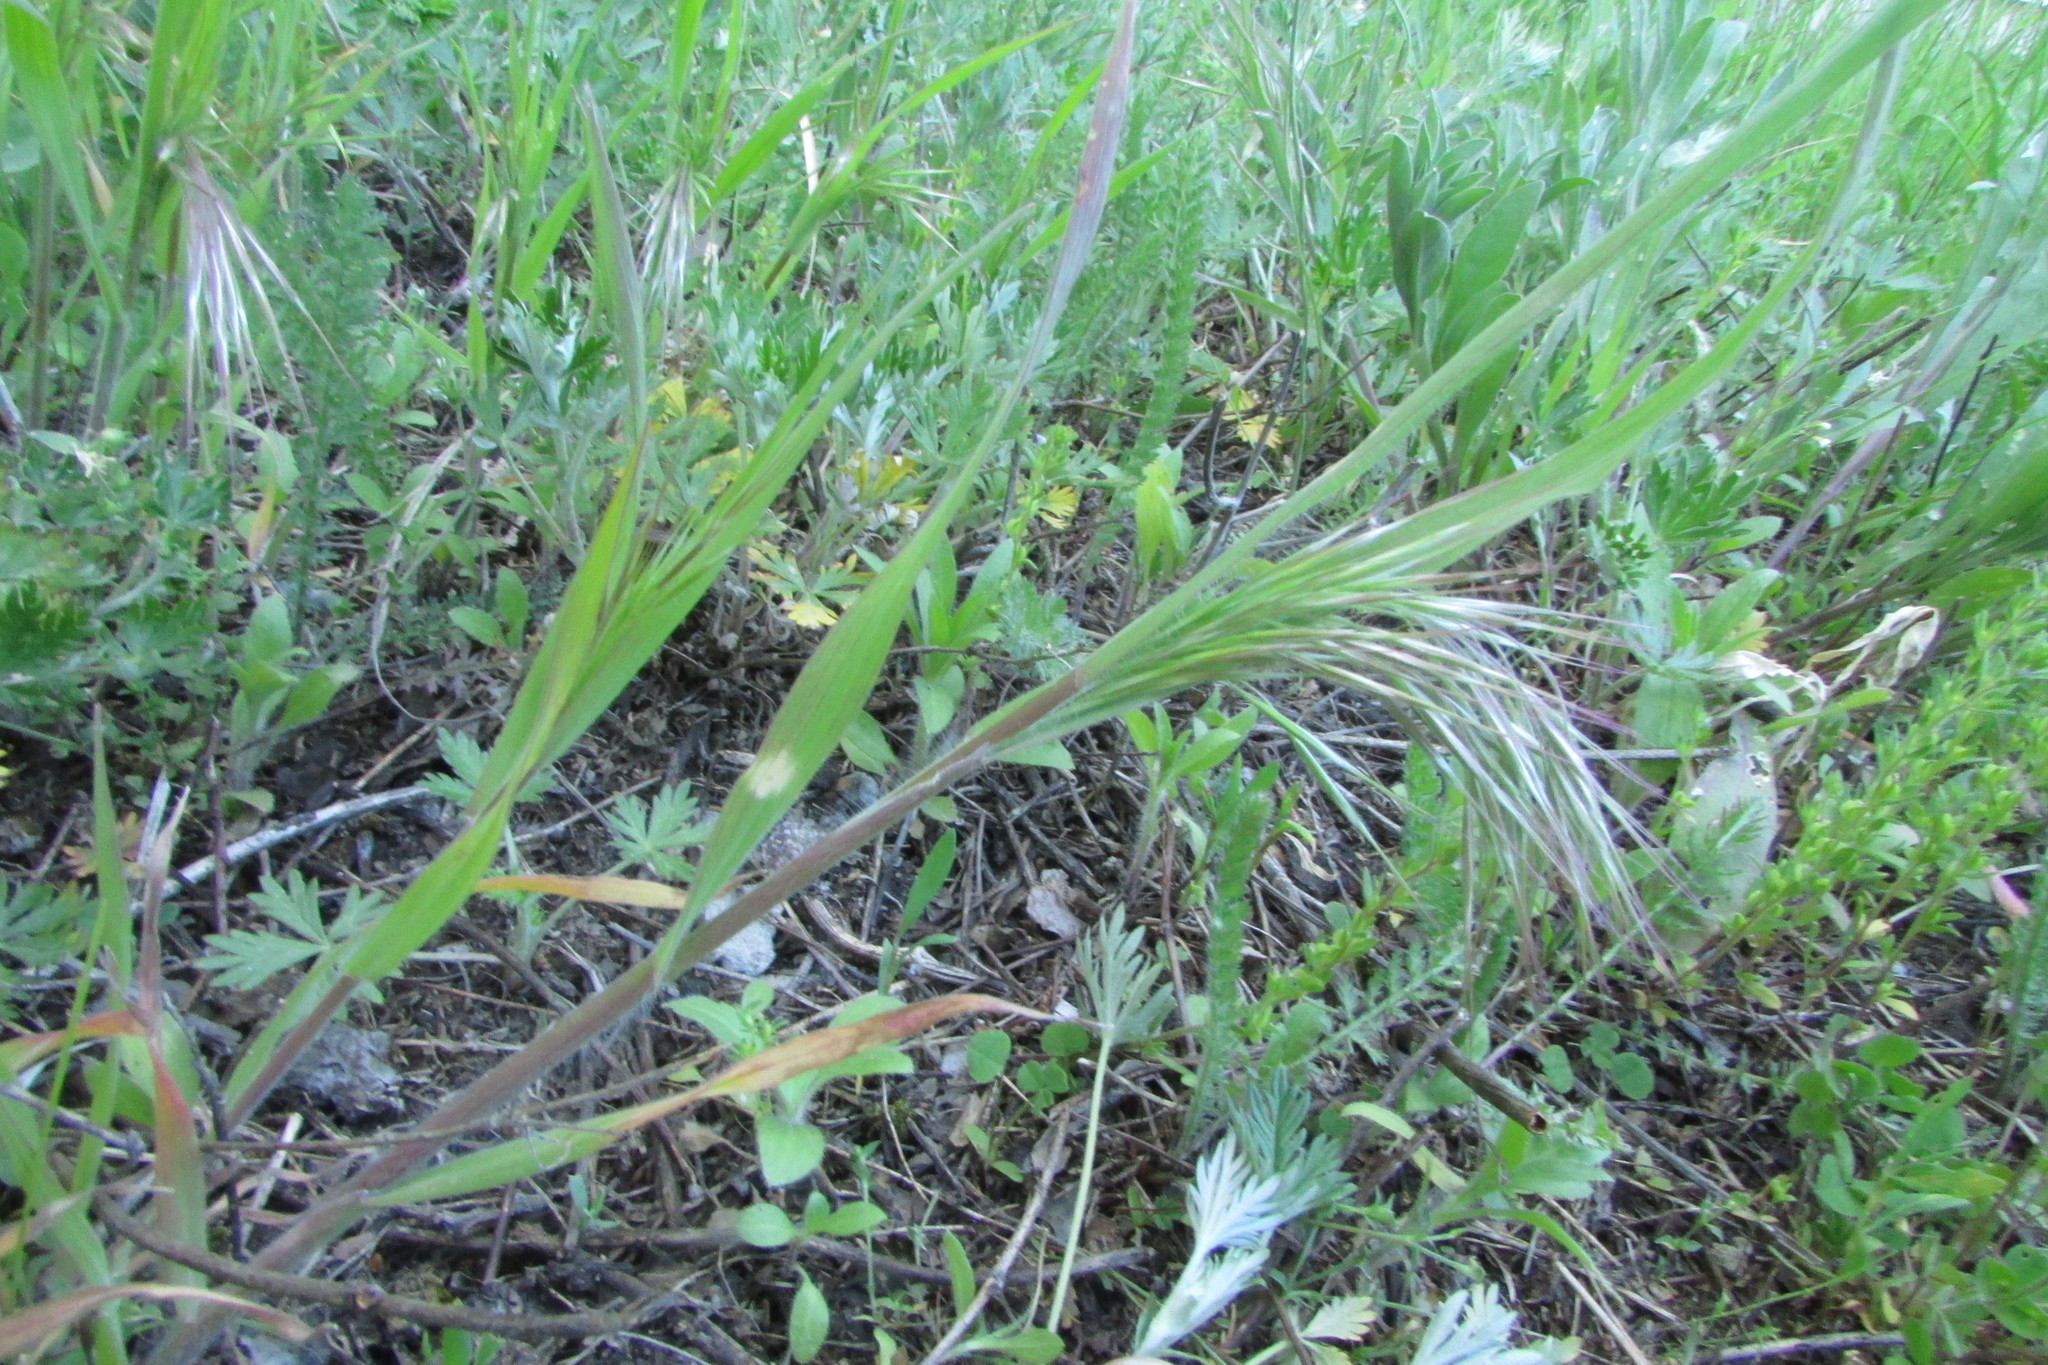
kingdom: Plantae
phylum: Tracheophyta
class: Liliopsida
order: Poales
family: Poaceae
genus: Bromus
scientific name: Bromus tectorum
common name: Cheatgrass
